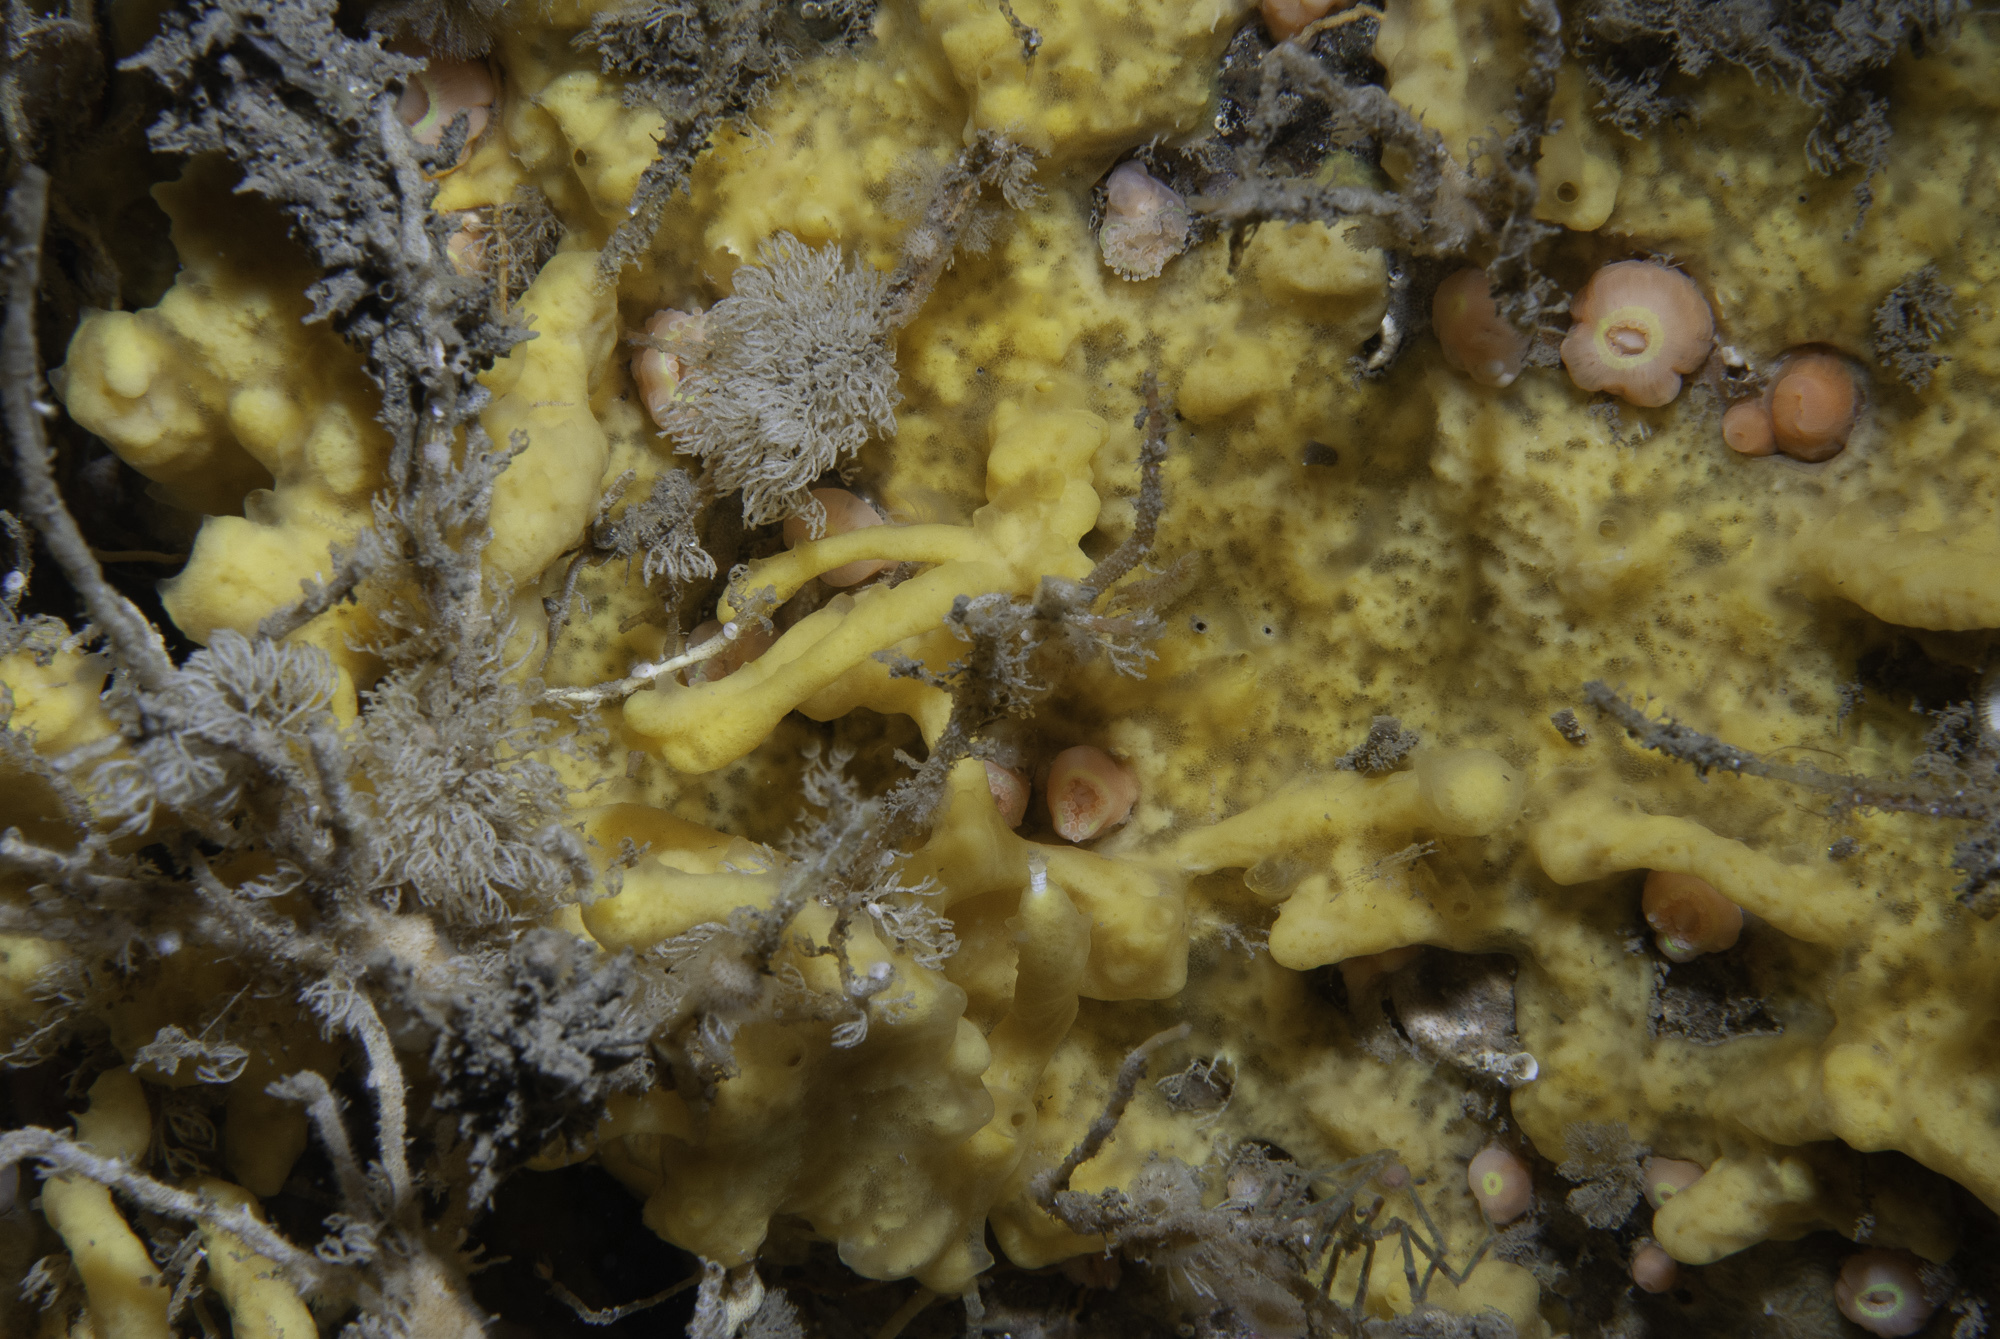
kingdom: Animalia
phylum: Porifera
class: Demospongiae
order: Poecilosclerida
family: Acarnidae
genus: Iophon
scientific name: Iophon nigricans
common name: Yellow-fingered horny sponge
